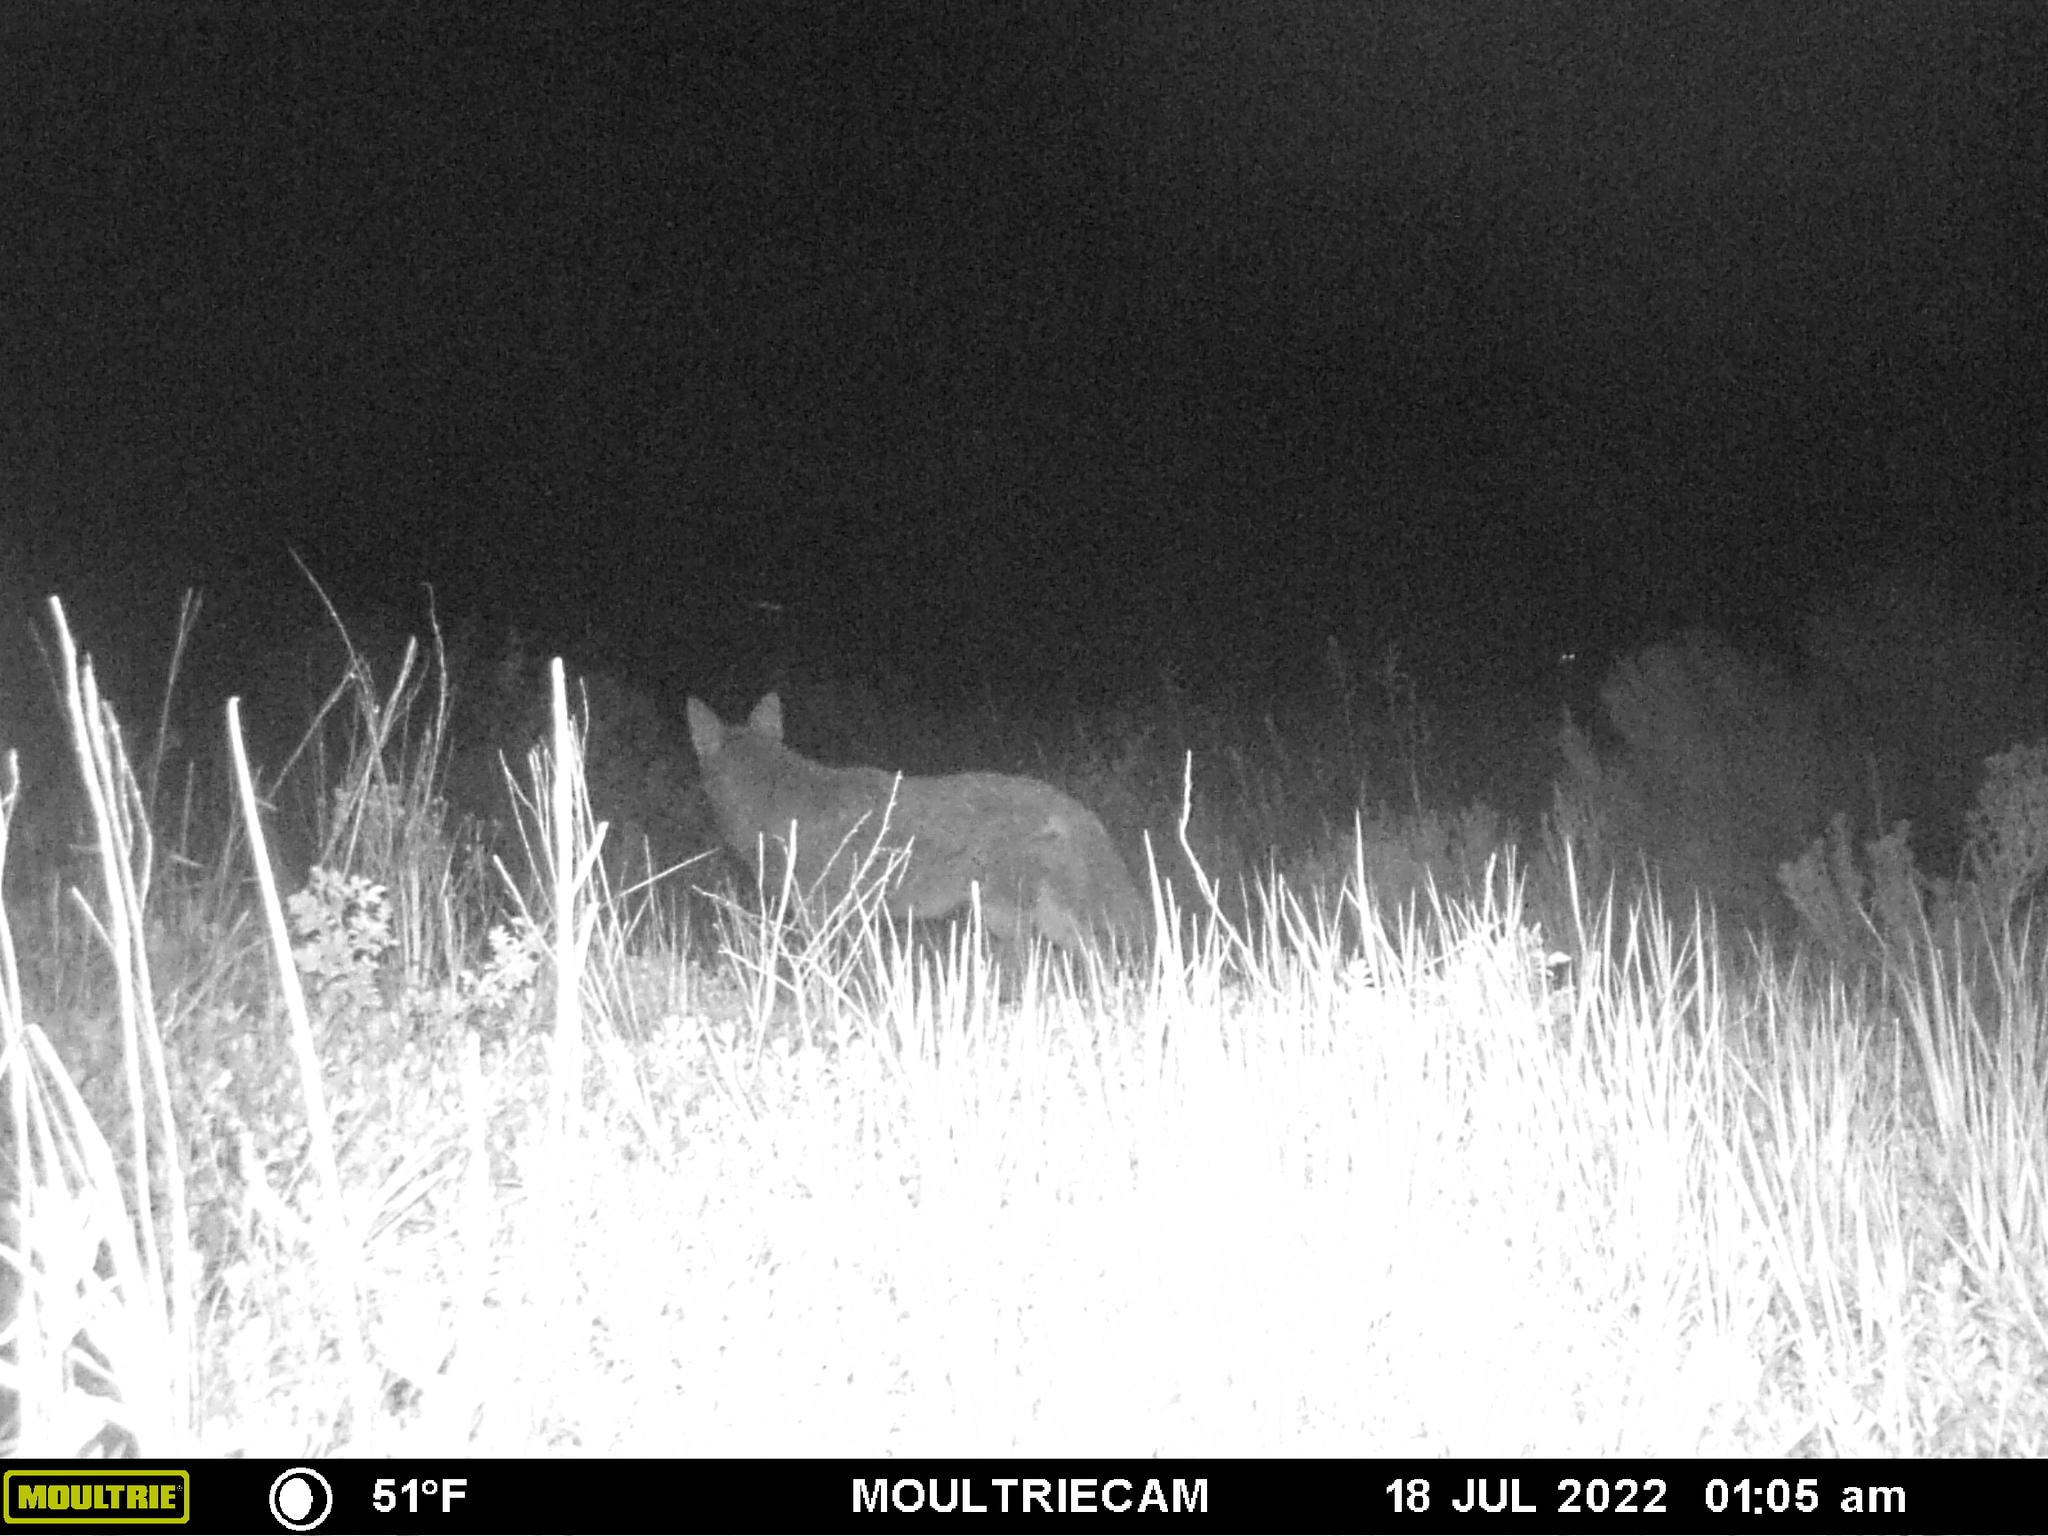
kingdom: Animalia
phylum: Chordata
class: Mammalia
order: Carnivora
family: Canidae
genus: Canis
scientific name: Canis latrans
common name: Coyote
